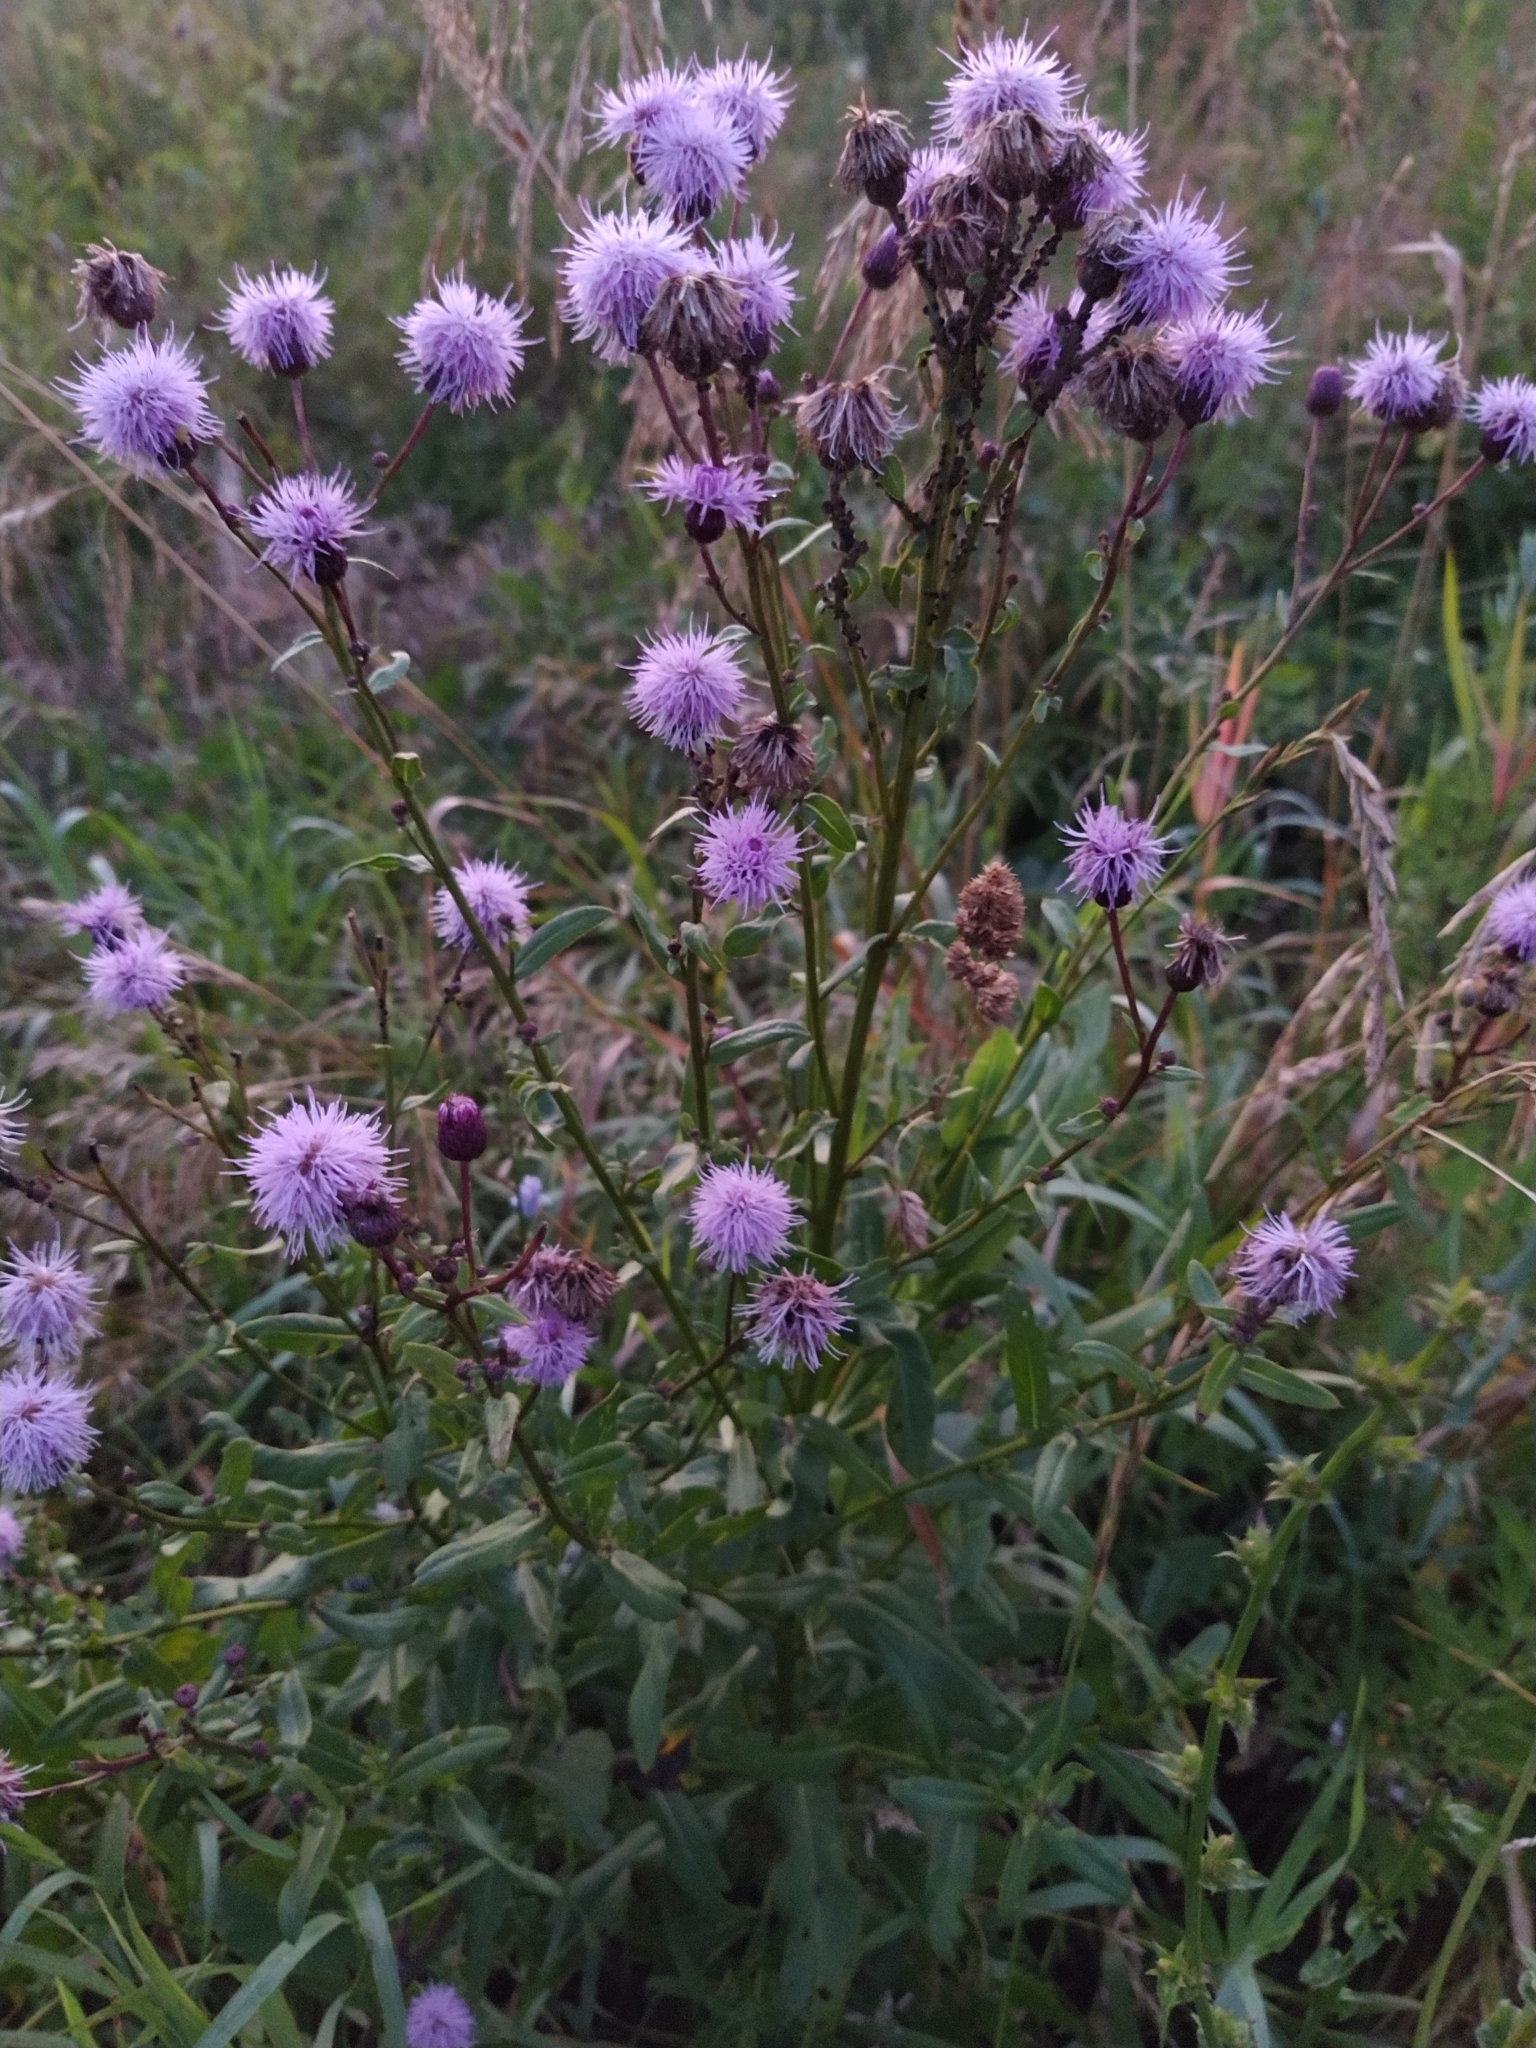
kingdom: Plantae
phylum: Tracheophyta
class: Magnoliopsida
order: Asterales
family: Asteraceae
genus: Cirsium
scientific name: Cirsium arvense
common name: Creeping thistle
